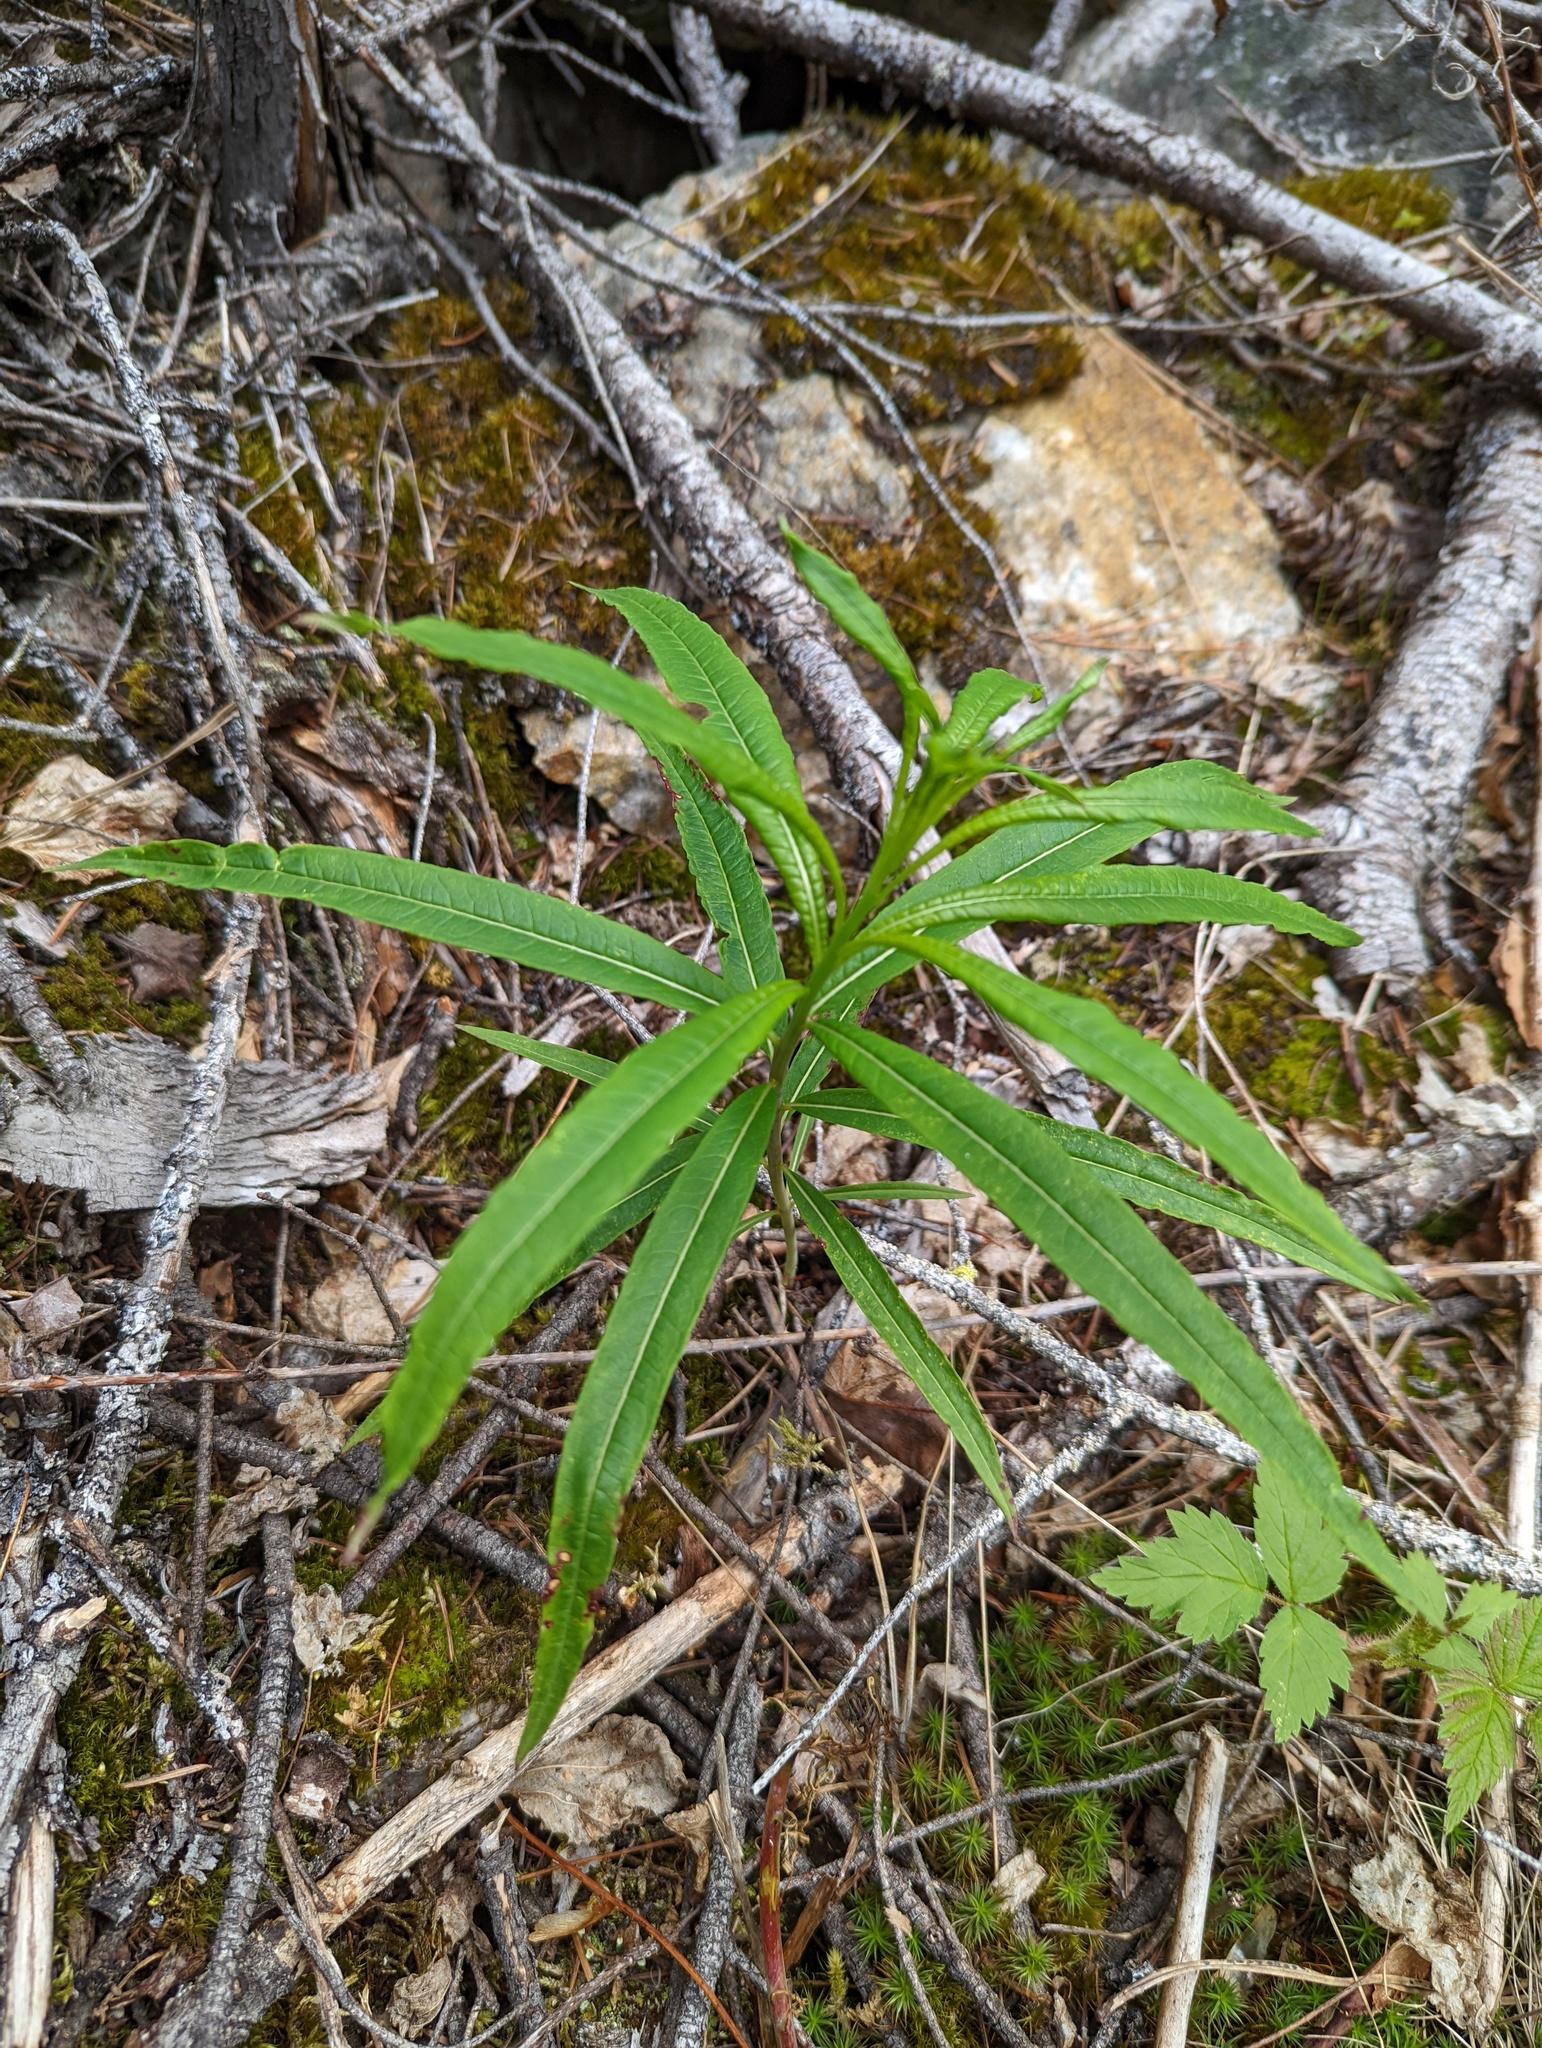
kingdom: Plantae
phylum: Tracheophyta
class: Magnoliopsida
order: Myrtales
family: Onagraceae
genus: Chamaenerion
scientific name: Chamaenerion angustifolium
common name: Fireweed
